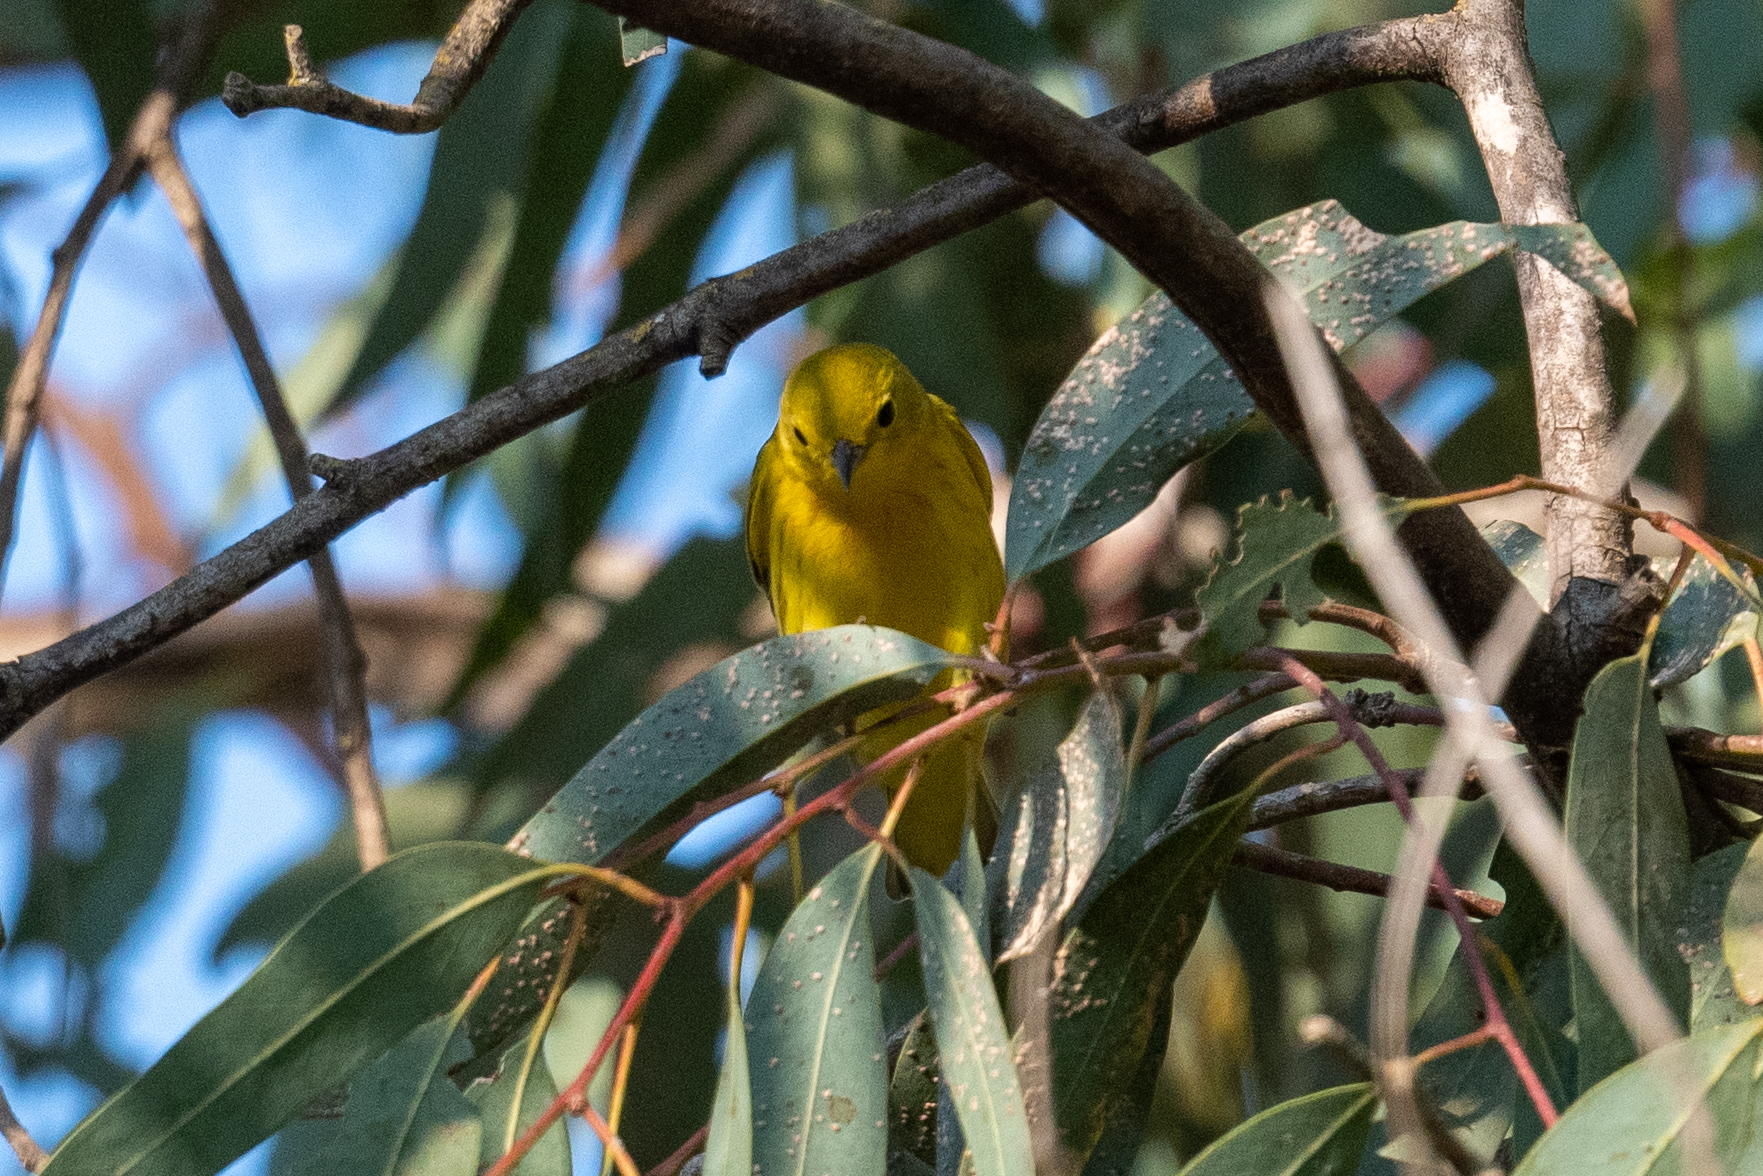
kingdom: Animalia
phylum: Chordata
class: Aves
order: Passeriformes
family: Parulidae
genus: Setophaga
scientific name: Setophaga petechia
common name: Yellow warbler
